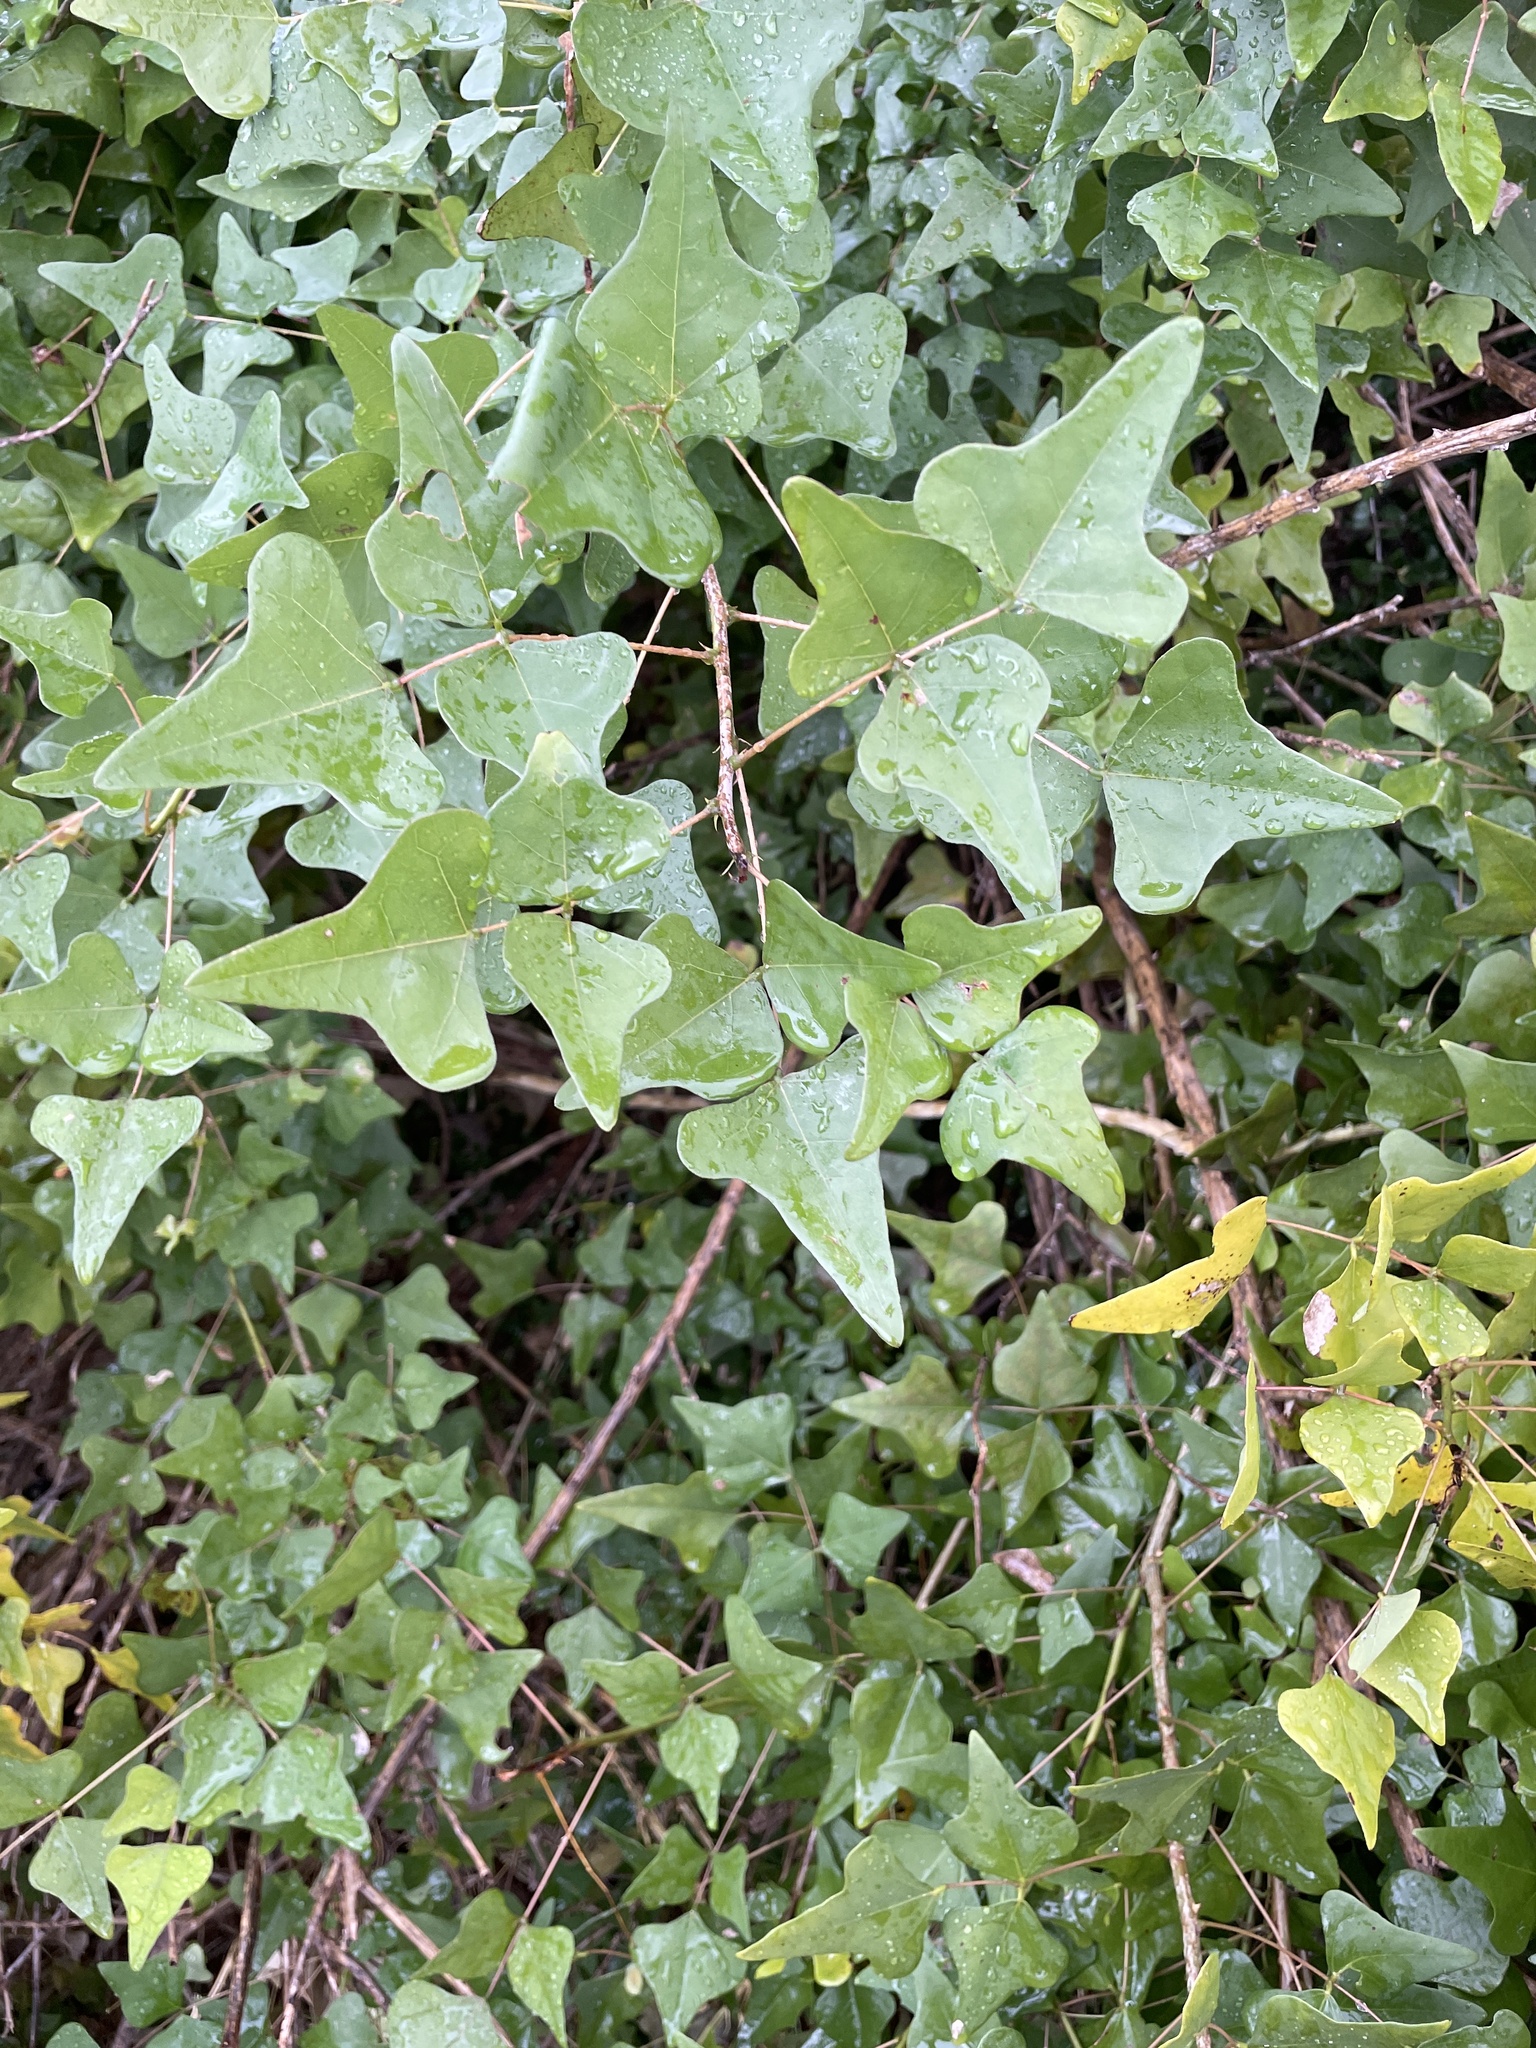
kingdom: Plantae
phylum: Tracheophyta
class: Magnoliopsida
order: Fabales
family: Fabaceae
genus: Erythrina
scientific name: Erythrina herbacea
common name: Coral-bean
